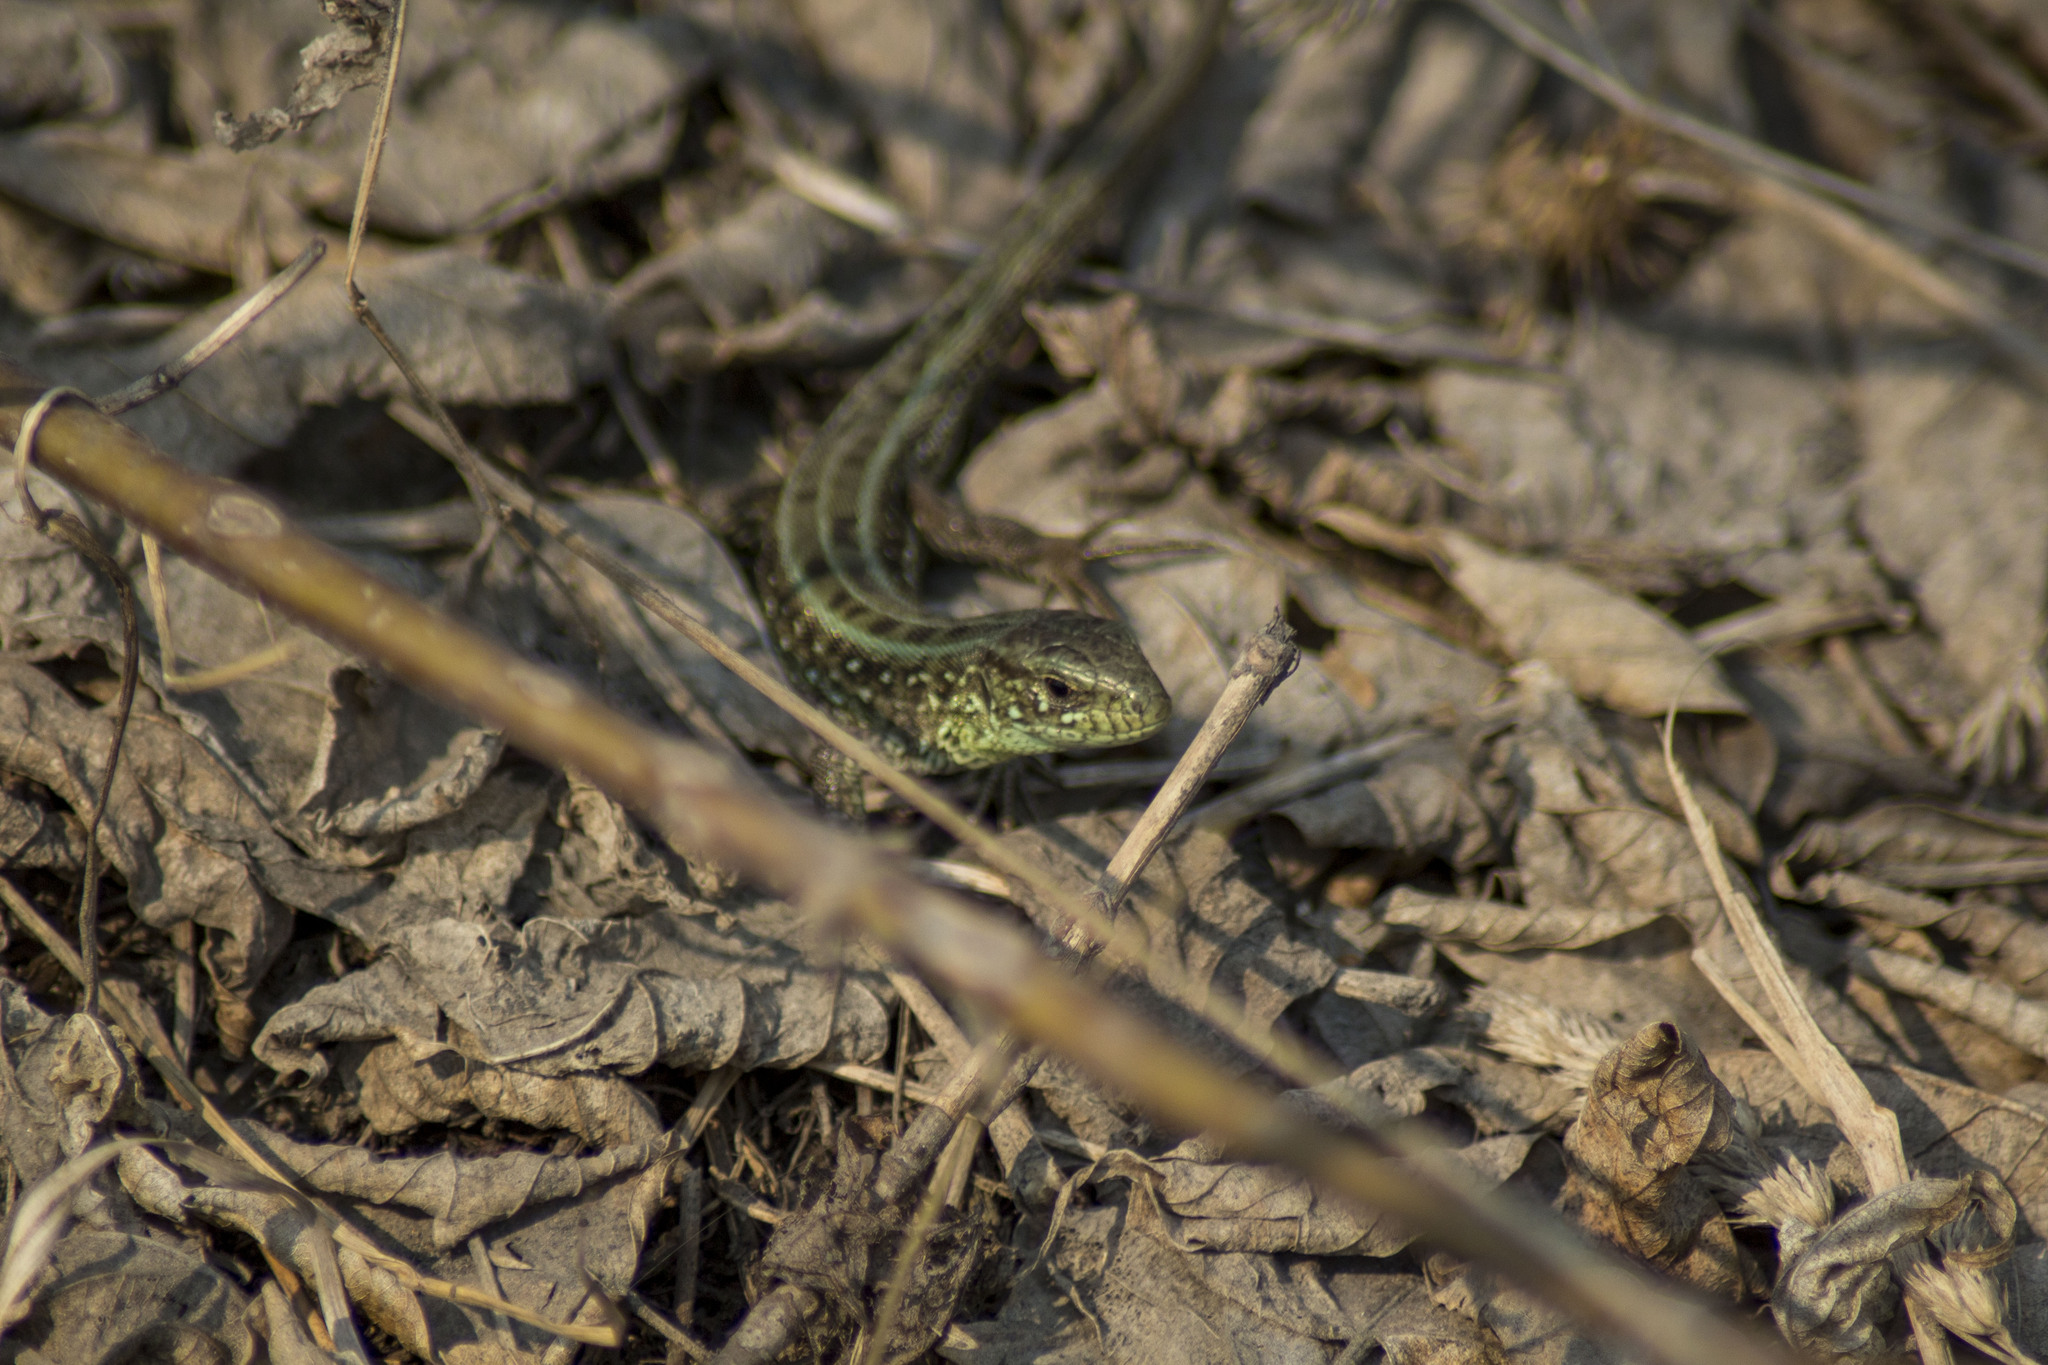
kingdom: Animalia
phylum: Chordata
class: Squamata
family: Lacertidae
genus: Lacerta
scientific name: Lacerta agilis
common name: Sand lizard
